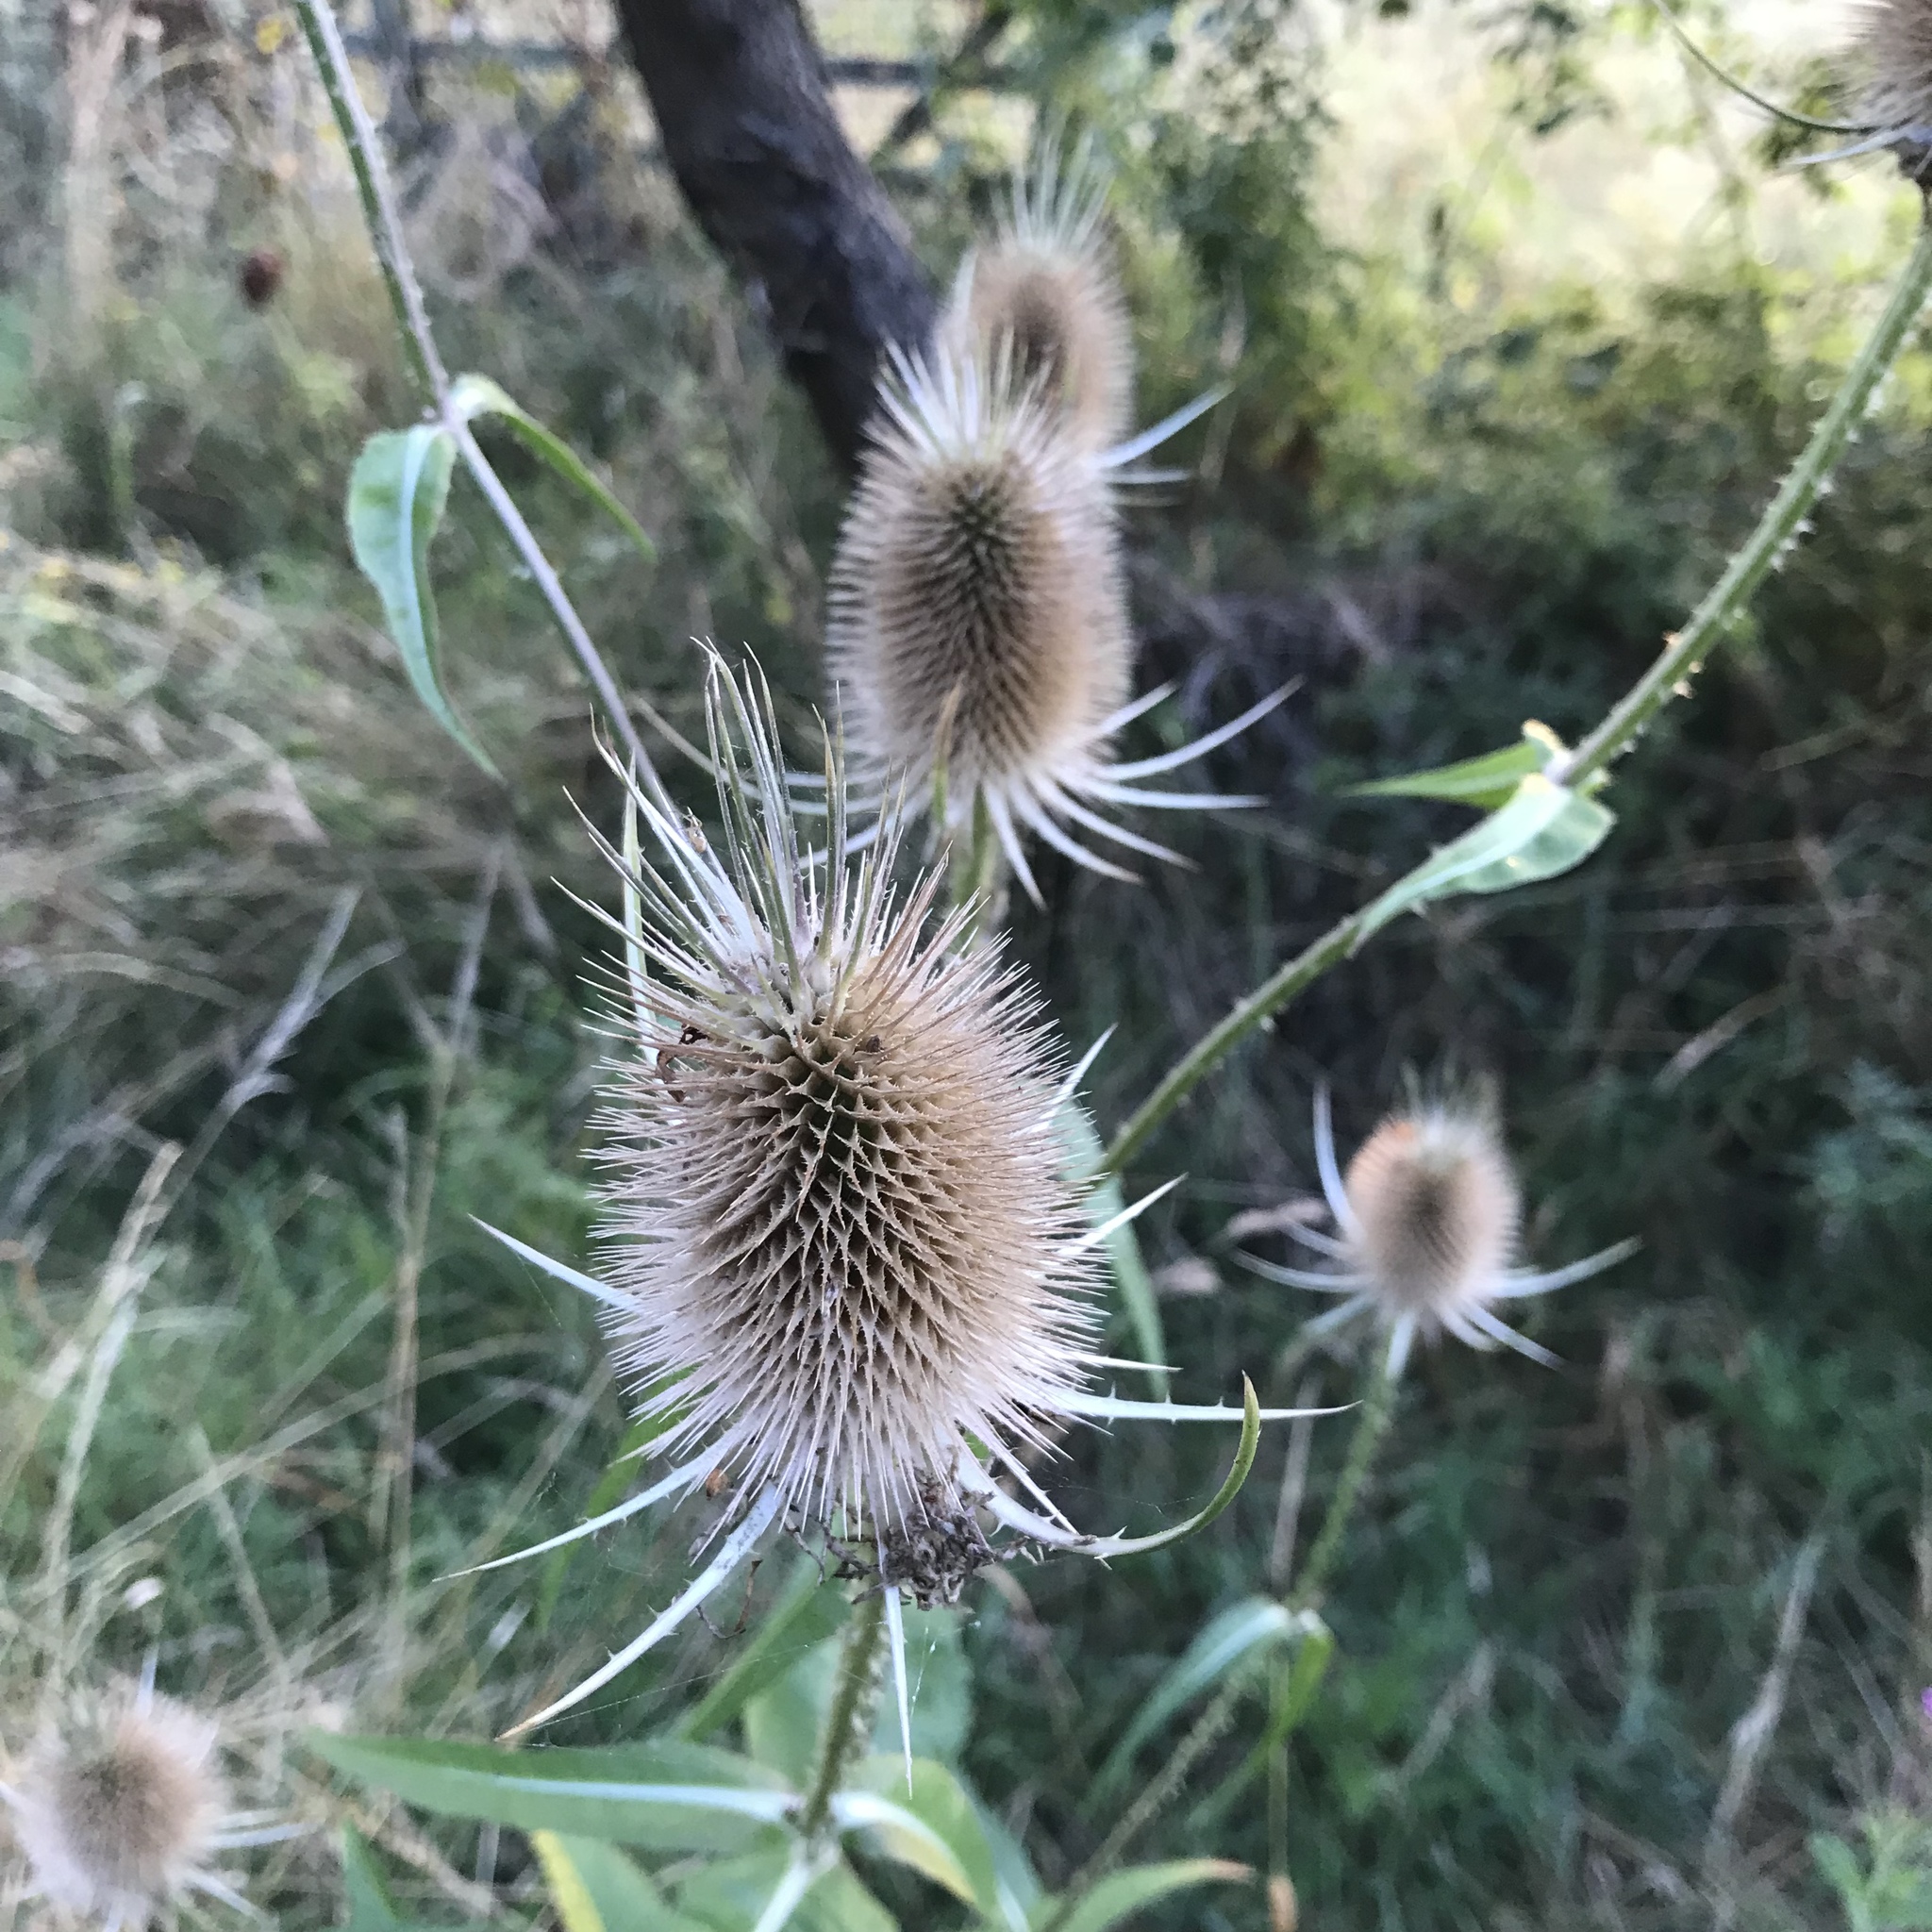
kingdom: Plantae
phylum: Tracheophyta
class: Magnoliopsida
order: Dipsacales
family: Caprifoliaceae
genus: Dipsacus
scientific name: Dipsacus fullonum
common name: Teasel
